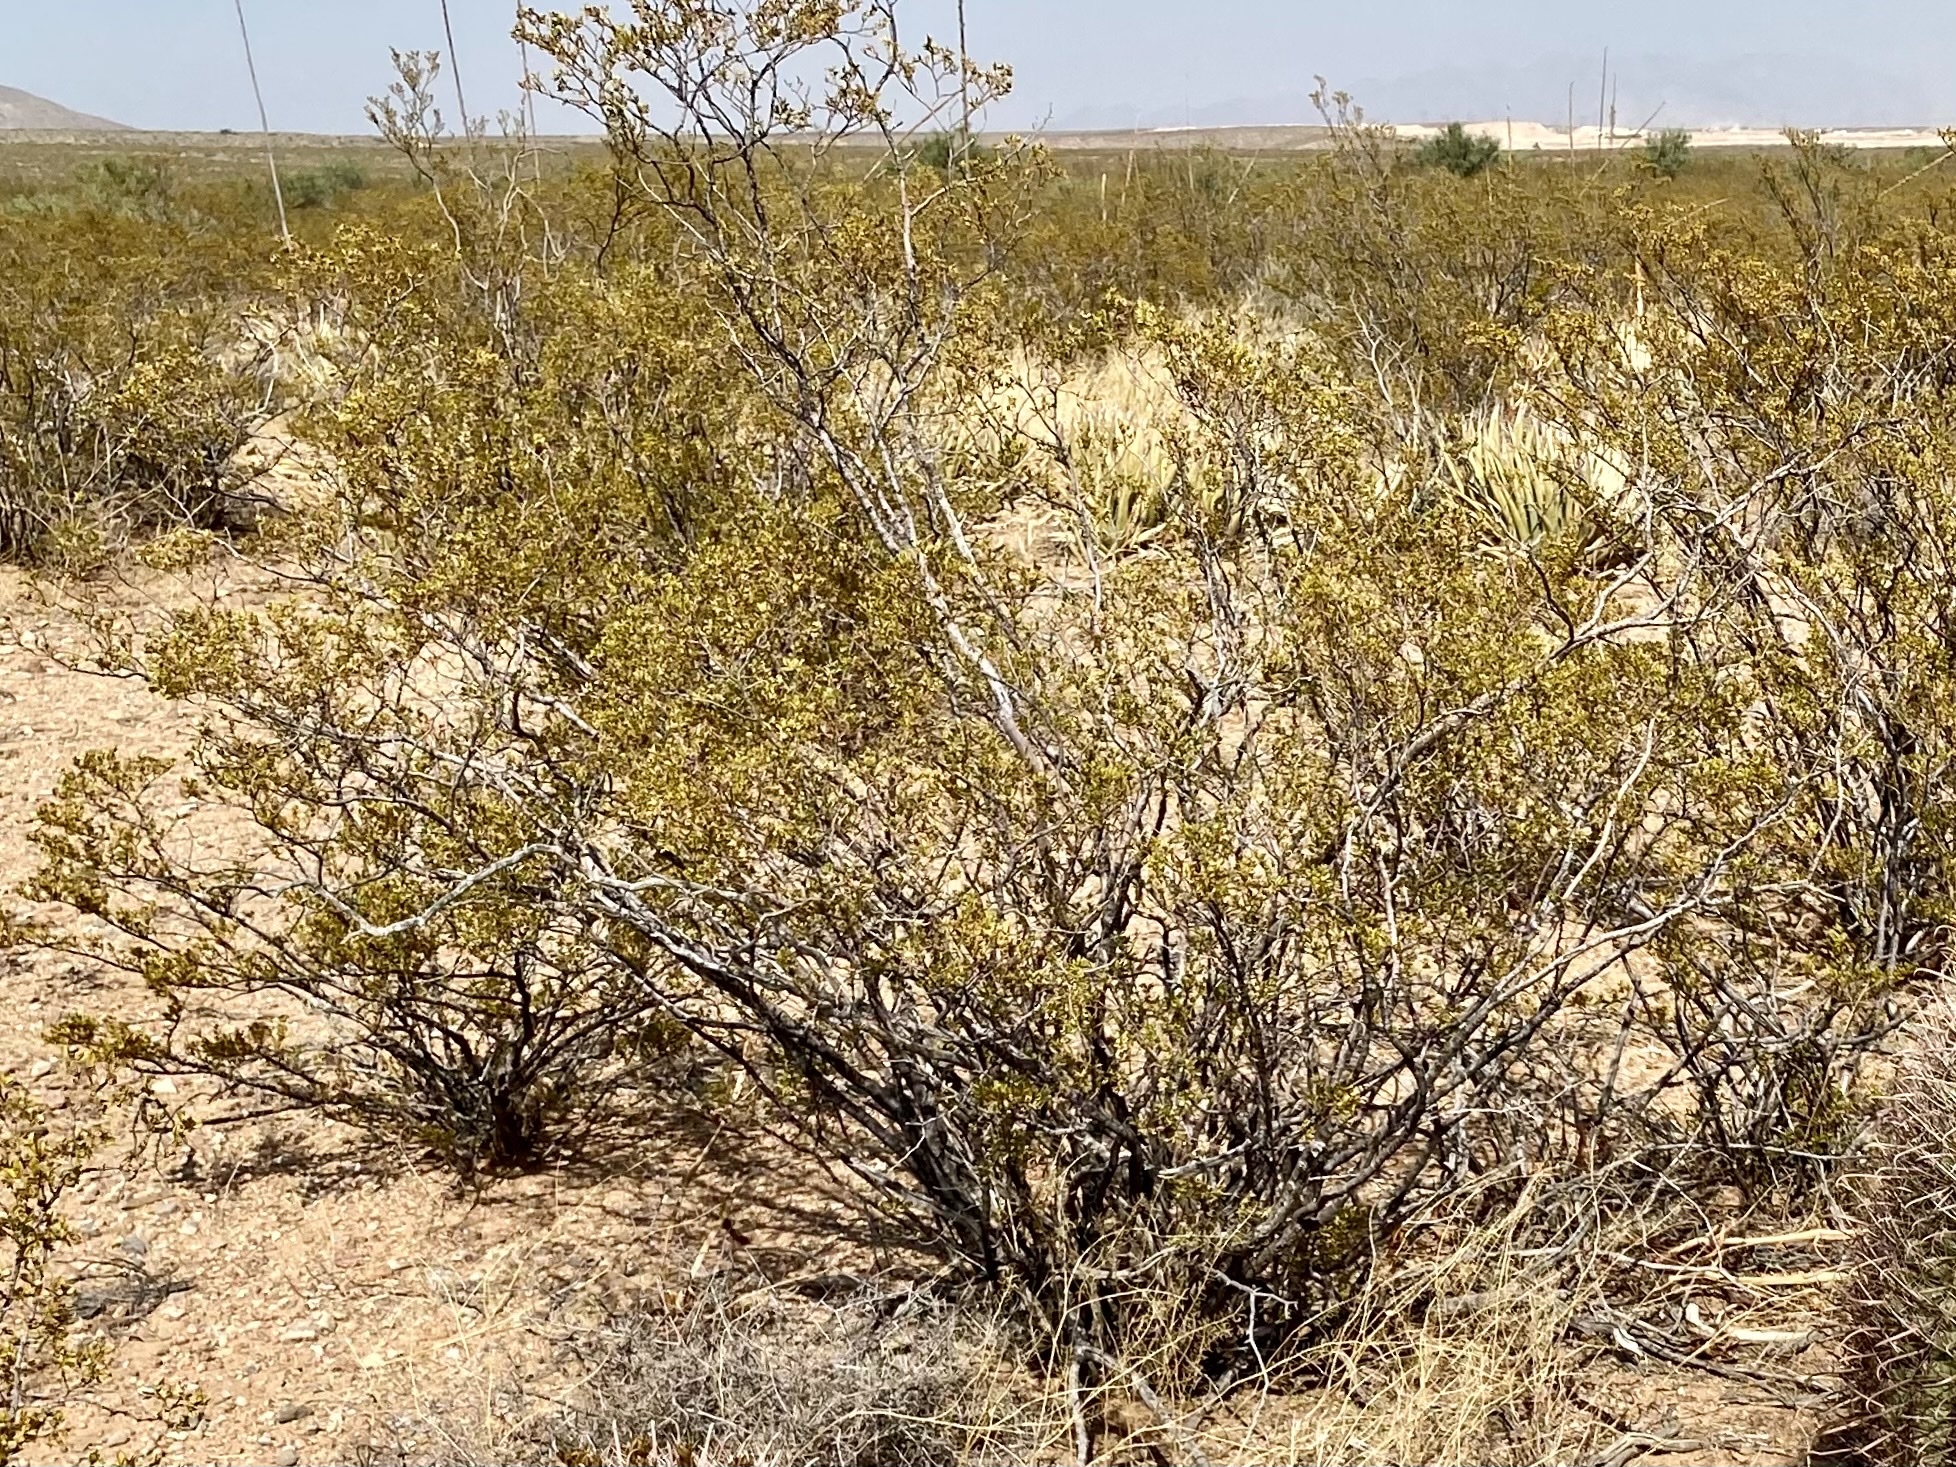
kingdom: Plantae
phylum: Tracheophyta
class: Magnoliopsida
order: Zygophyllales
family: Zygophyllaceae
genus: Larrea
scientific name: Larrea tridentata
